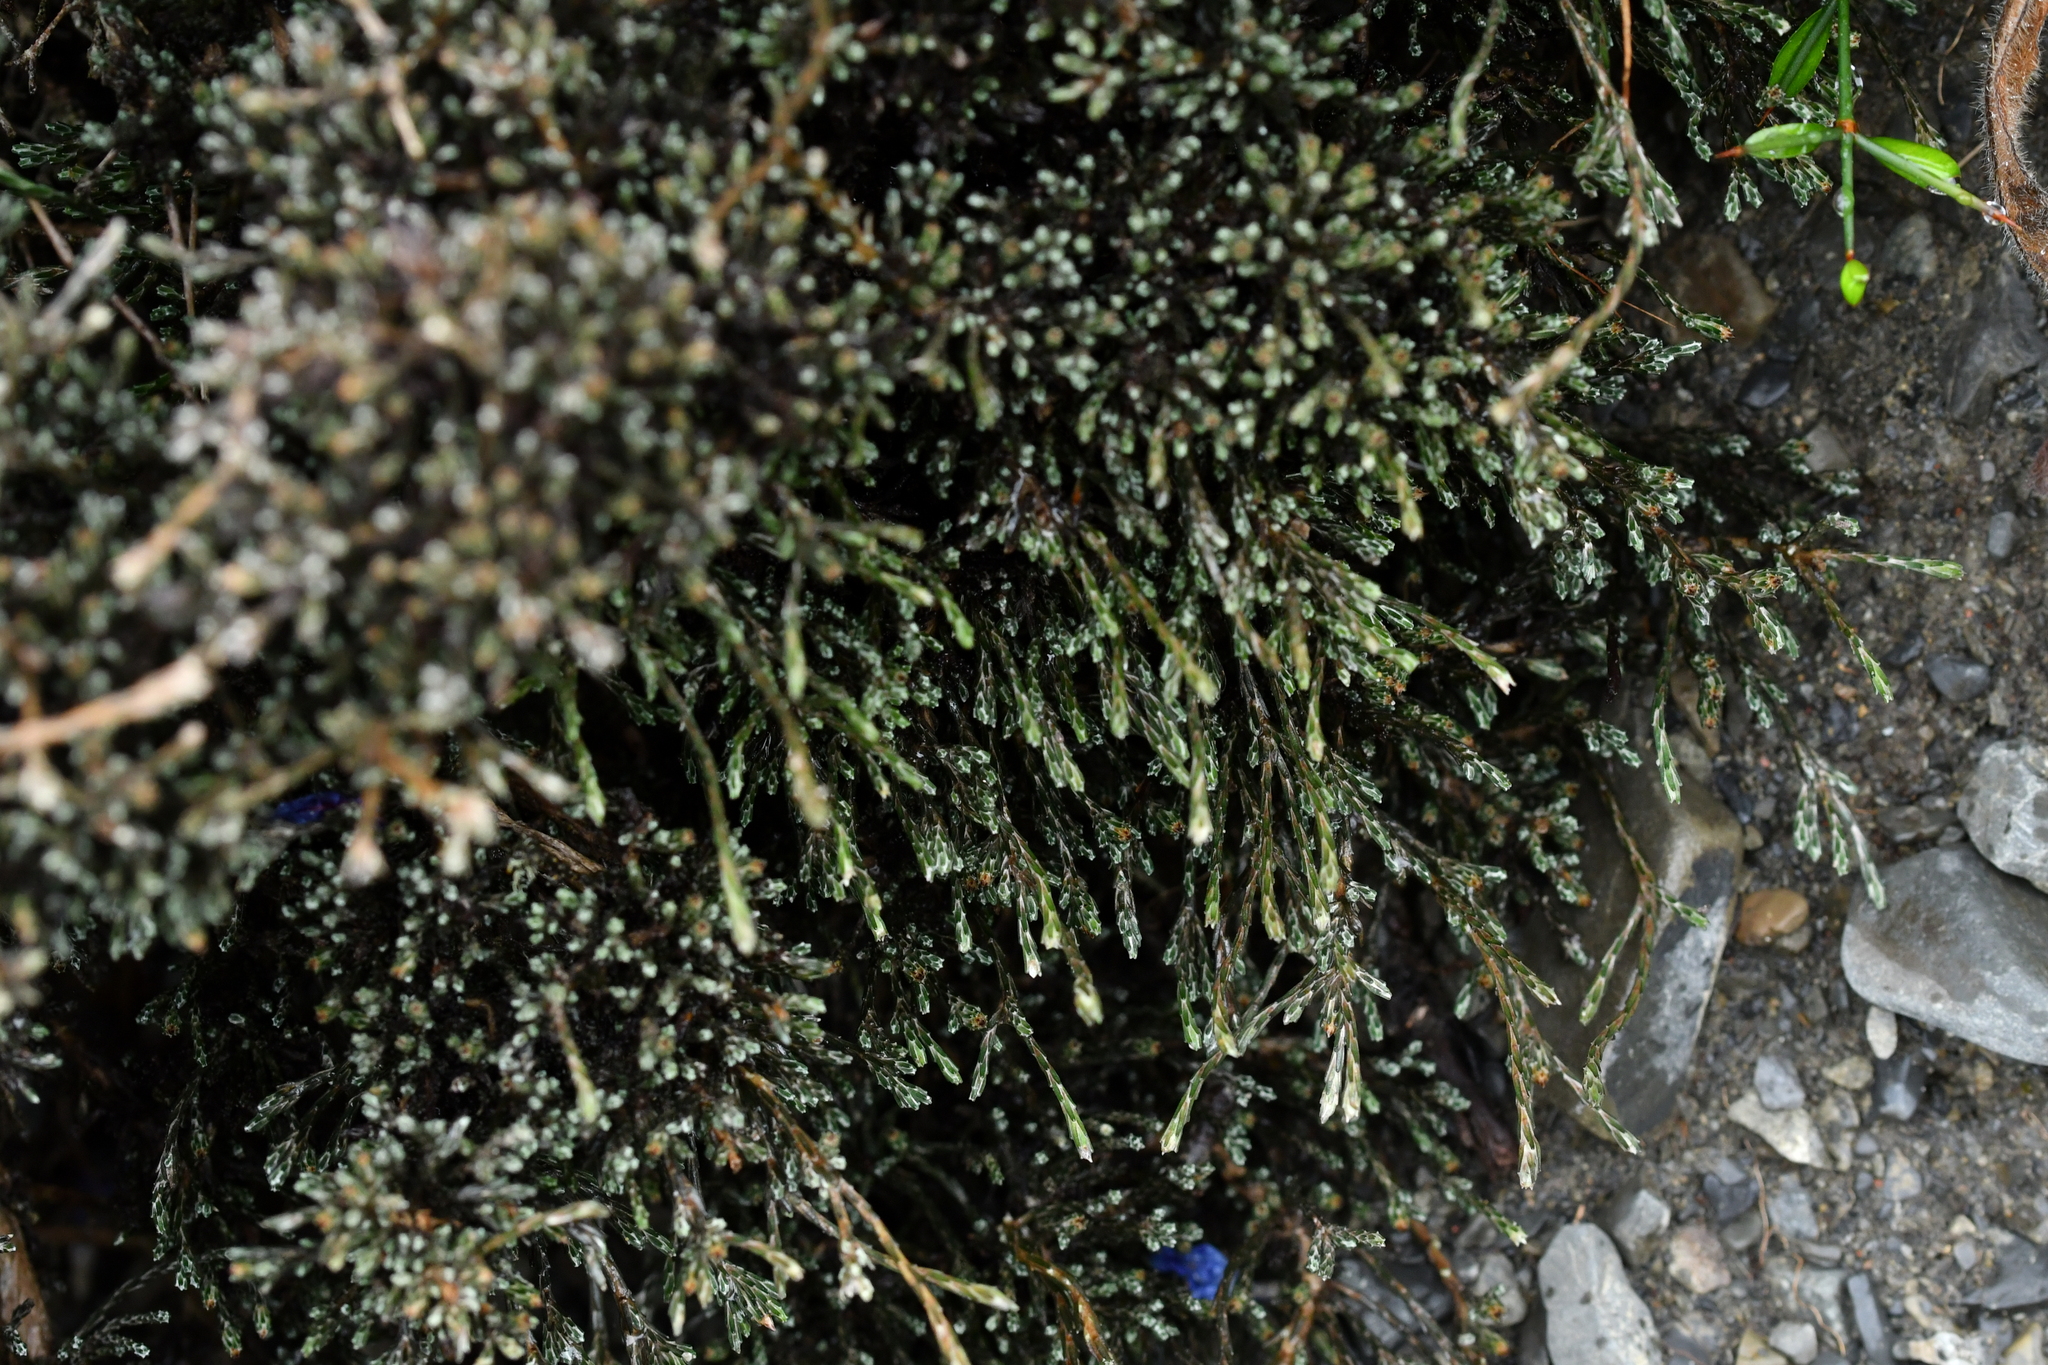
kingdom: Plantae
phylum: Tracheophyta
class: Magnoliopsida
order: Asterales
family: Asteraceae
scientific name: Asteraceae
